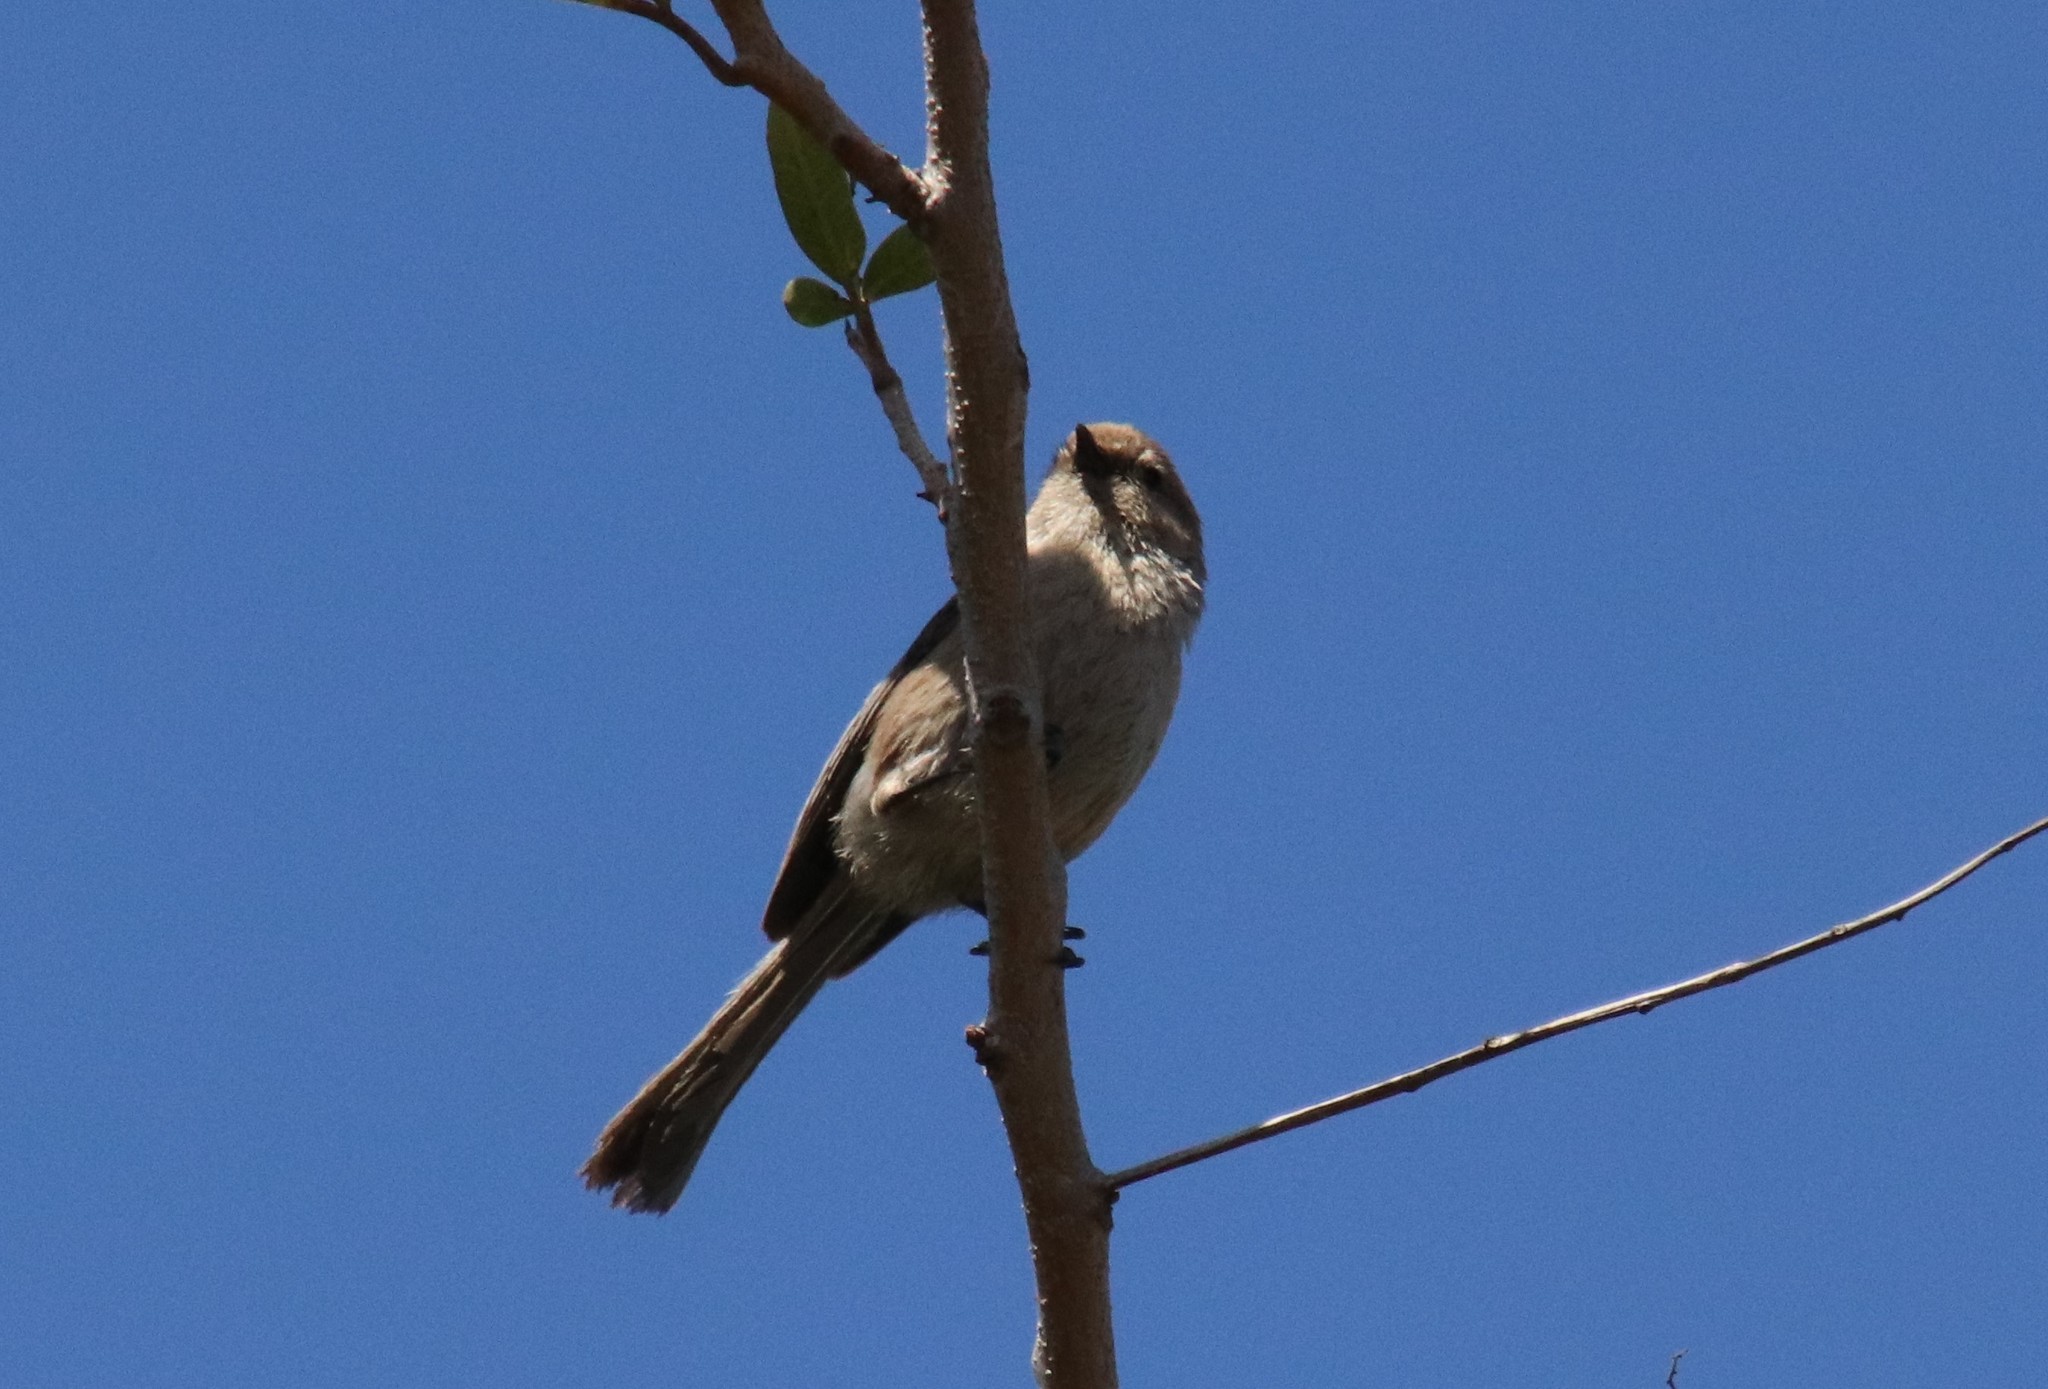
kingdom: Animalia
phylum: Chordata
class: Aves
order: Passeriformes
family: Aegithalidae
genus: Psaltriparus
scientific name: Psaltriparus minimus
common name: American bushtit
